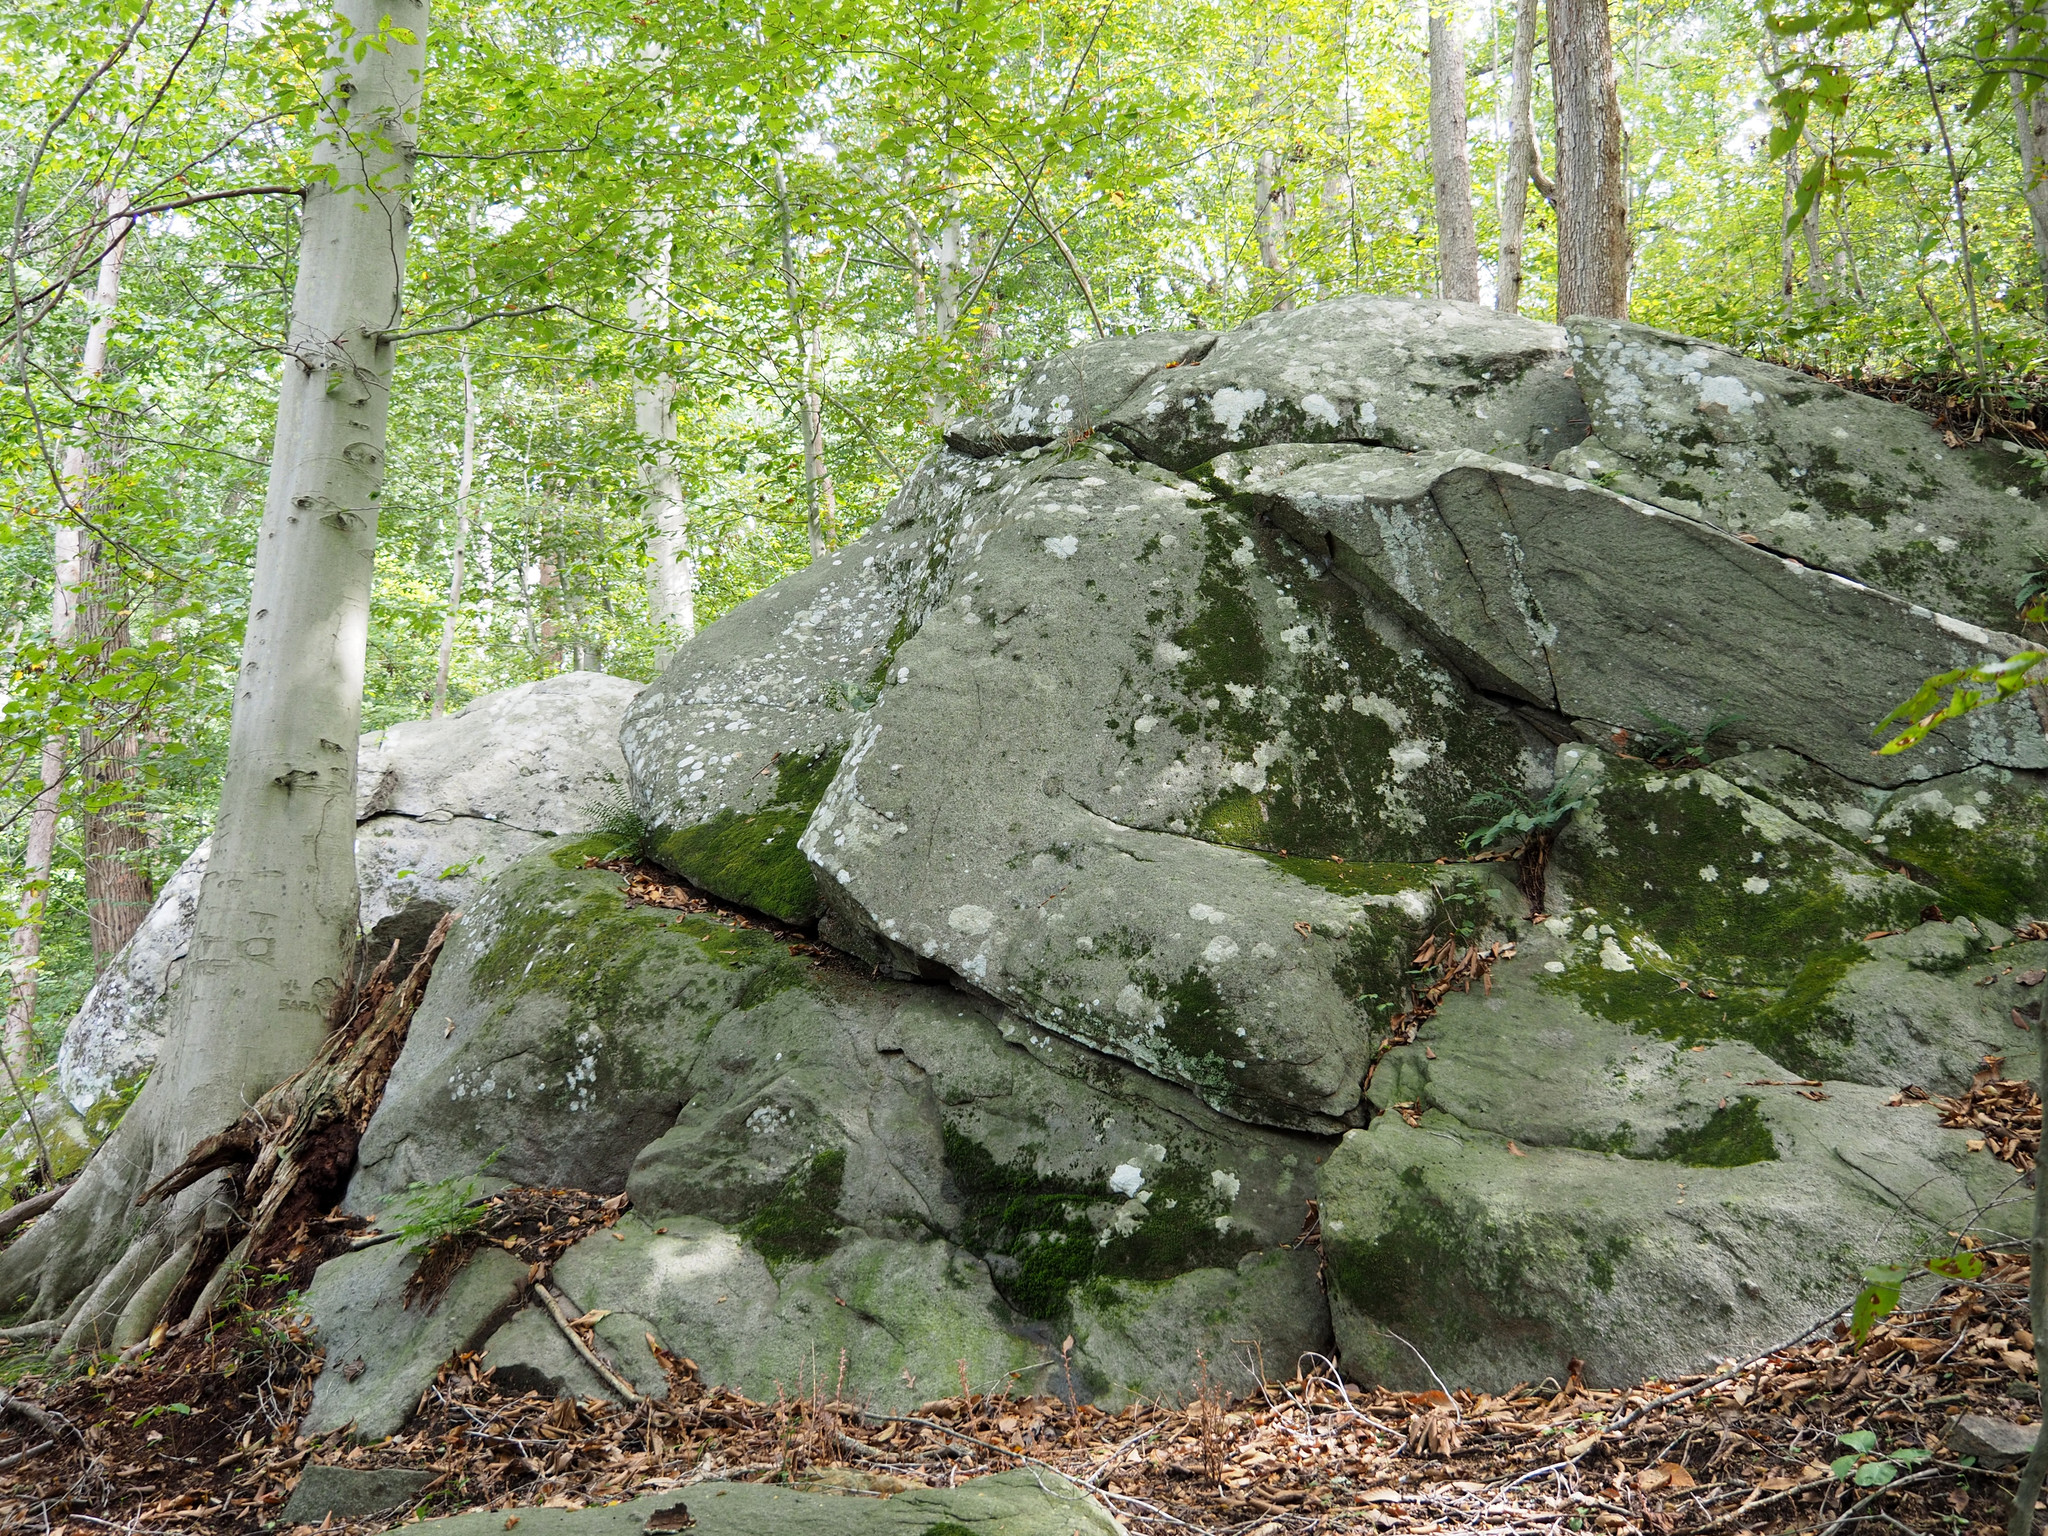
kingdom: Plantae
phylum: Tracheophyta
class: Polypodiopsida
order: Polypodiales
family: Dryopteridaceae
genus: Polystichum
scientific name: Polystichum acrostichoides
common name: Christmas fern
